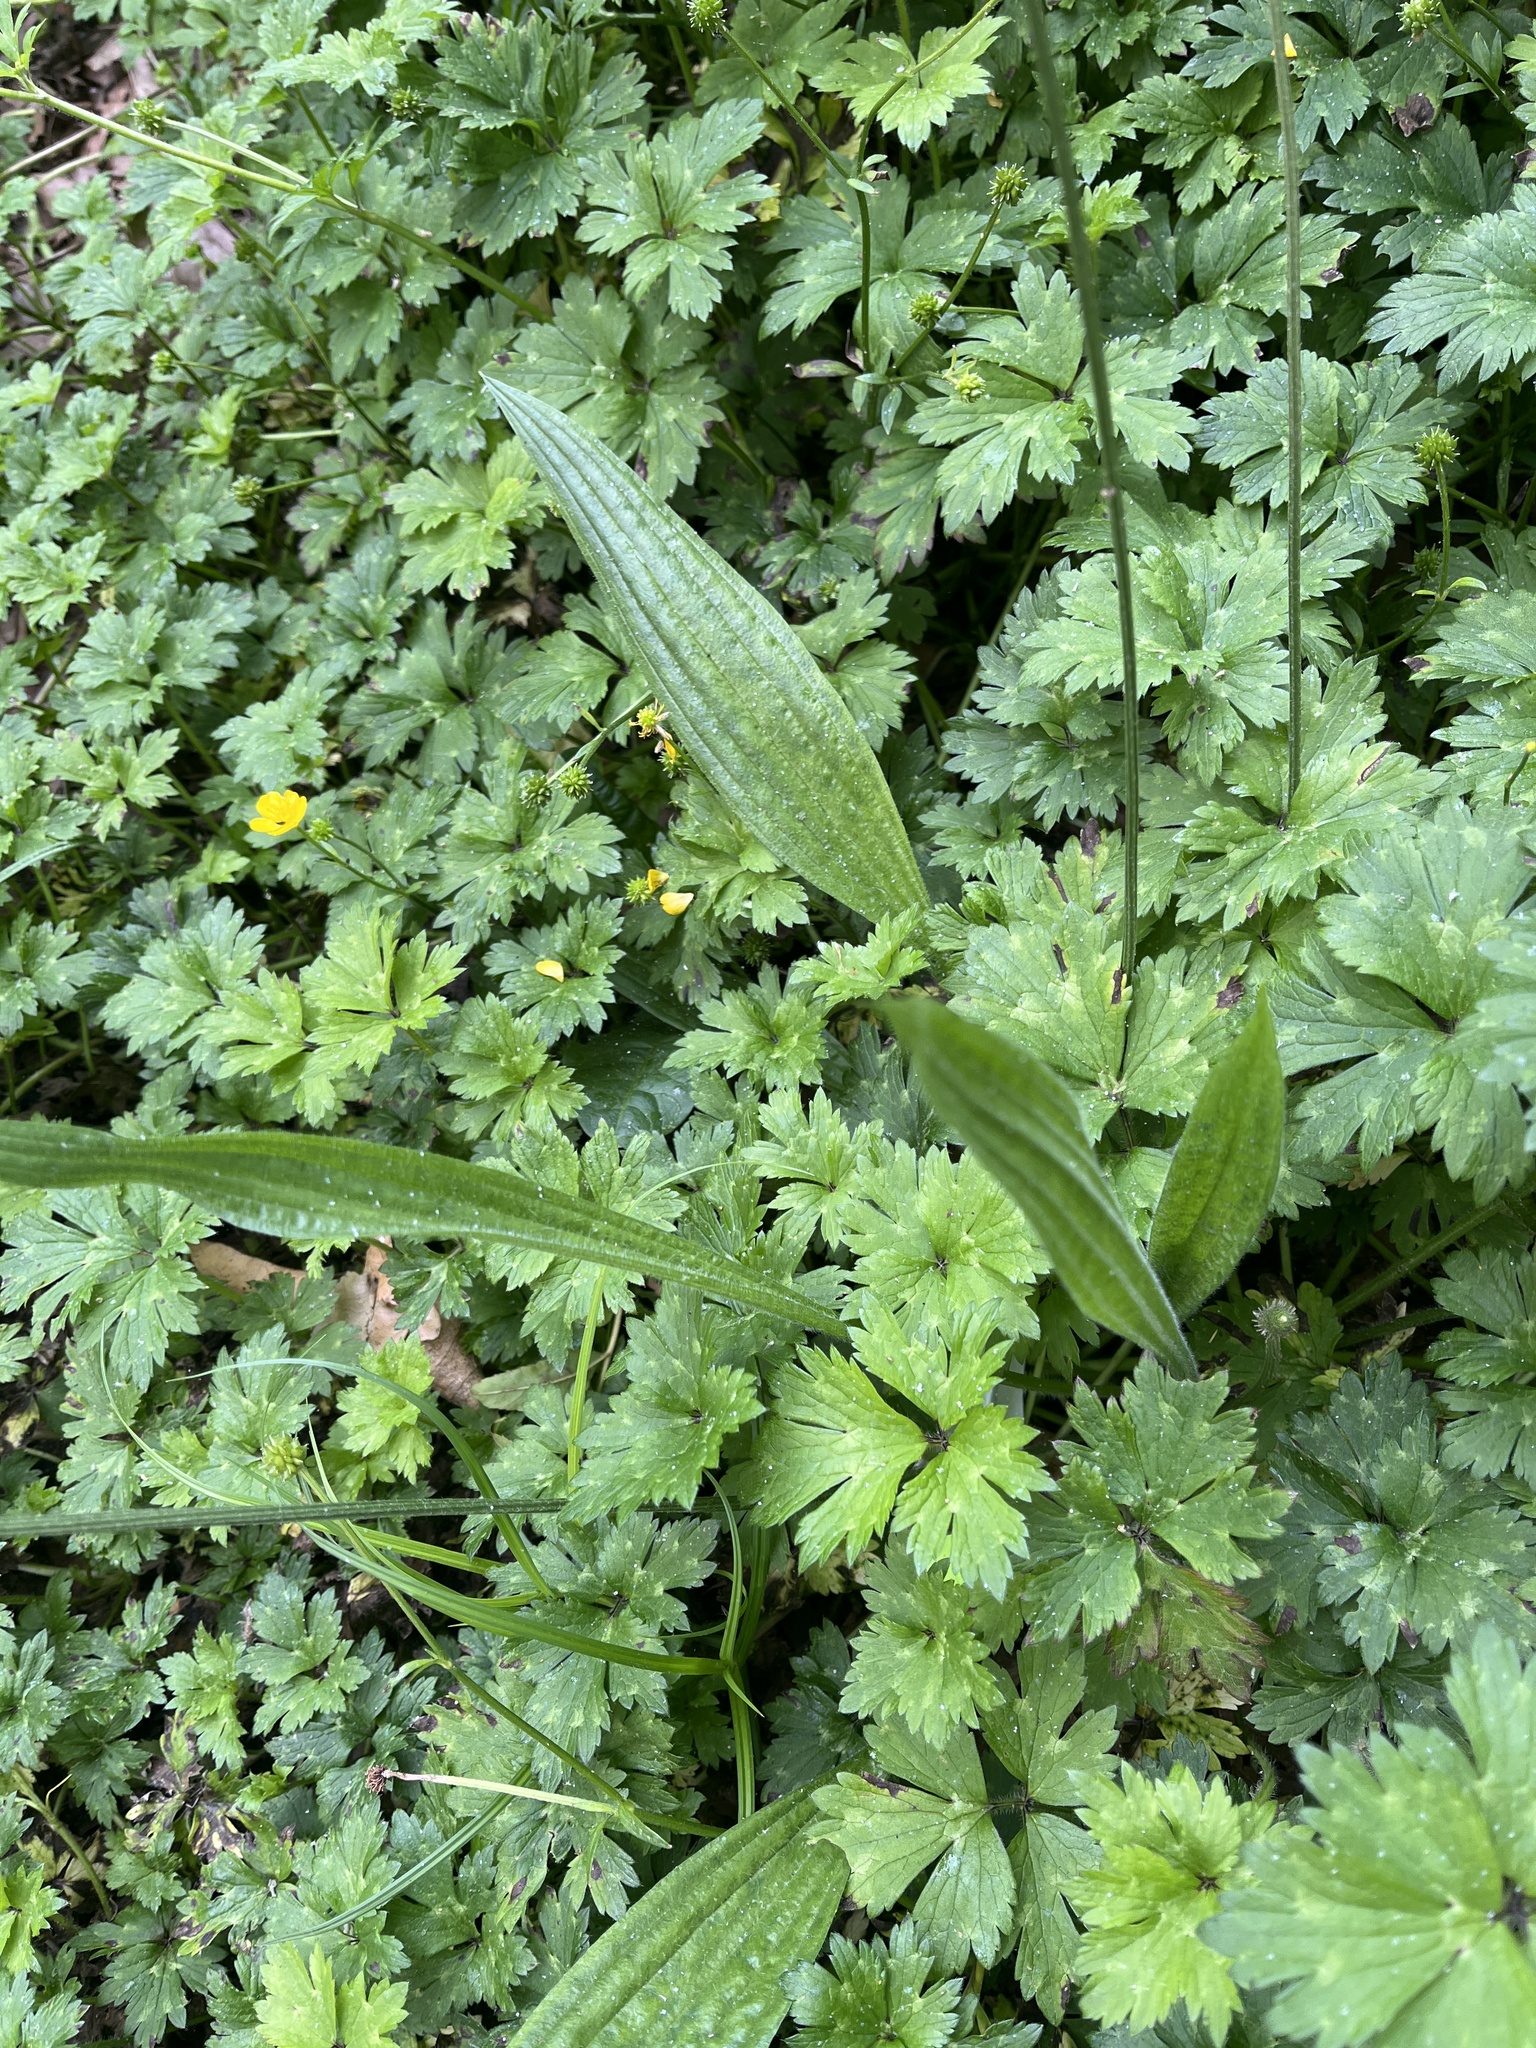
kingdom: Plantae
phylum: Tracheophyta
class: Magnoliopsida
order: Lamiales
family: Plantaginaceae
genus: Plantago
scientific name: Plantago lanceolata
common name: Ribwort plantain
